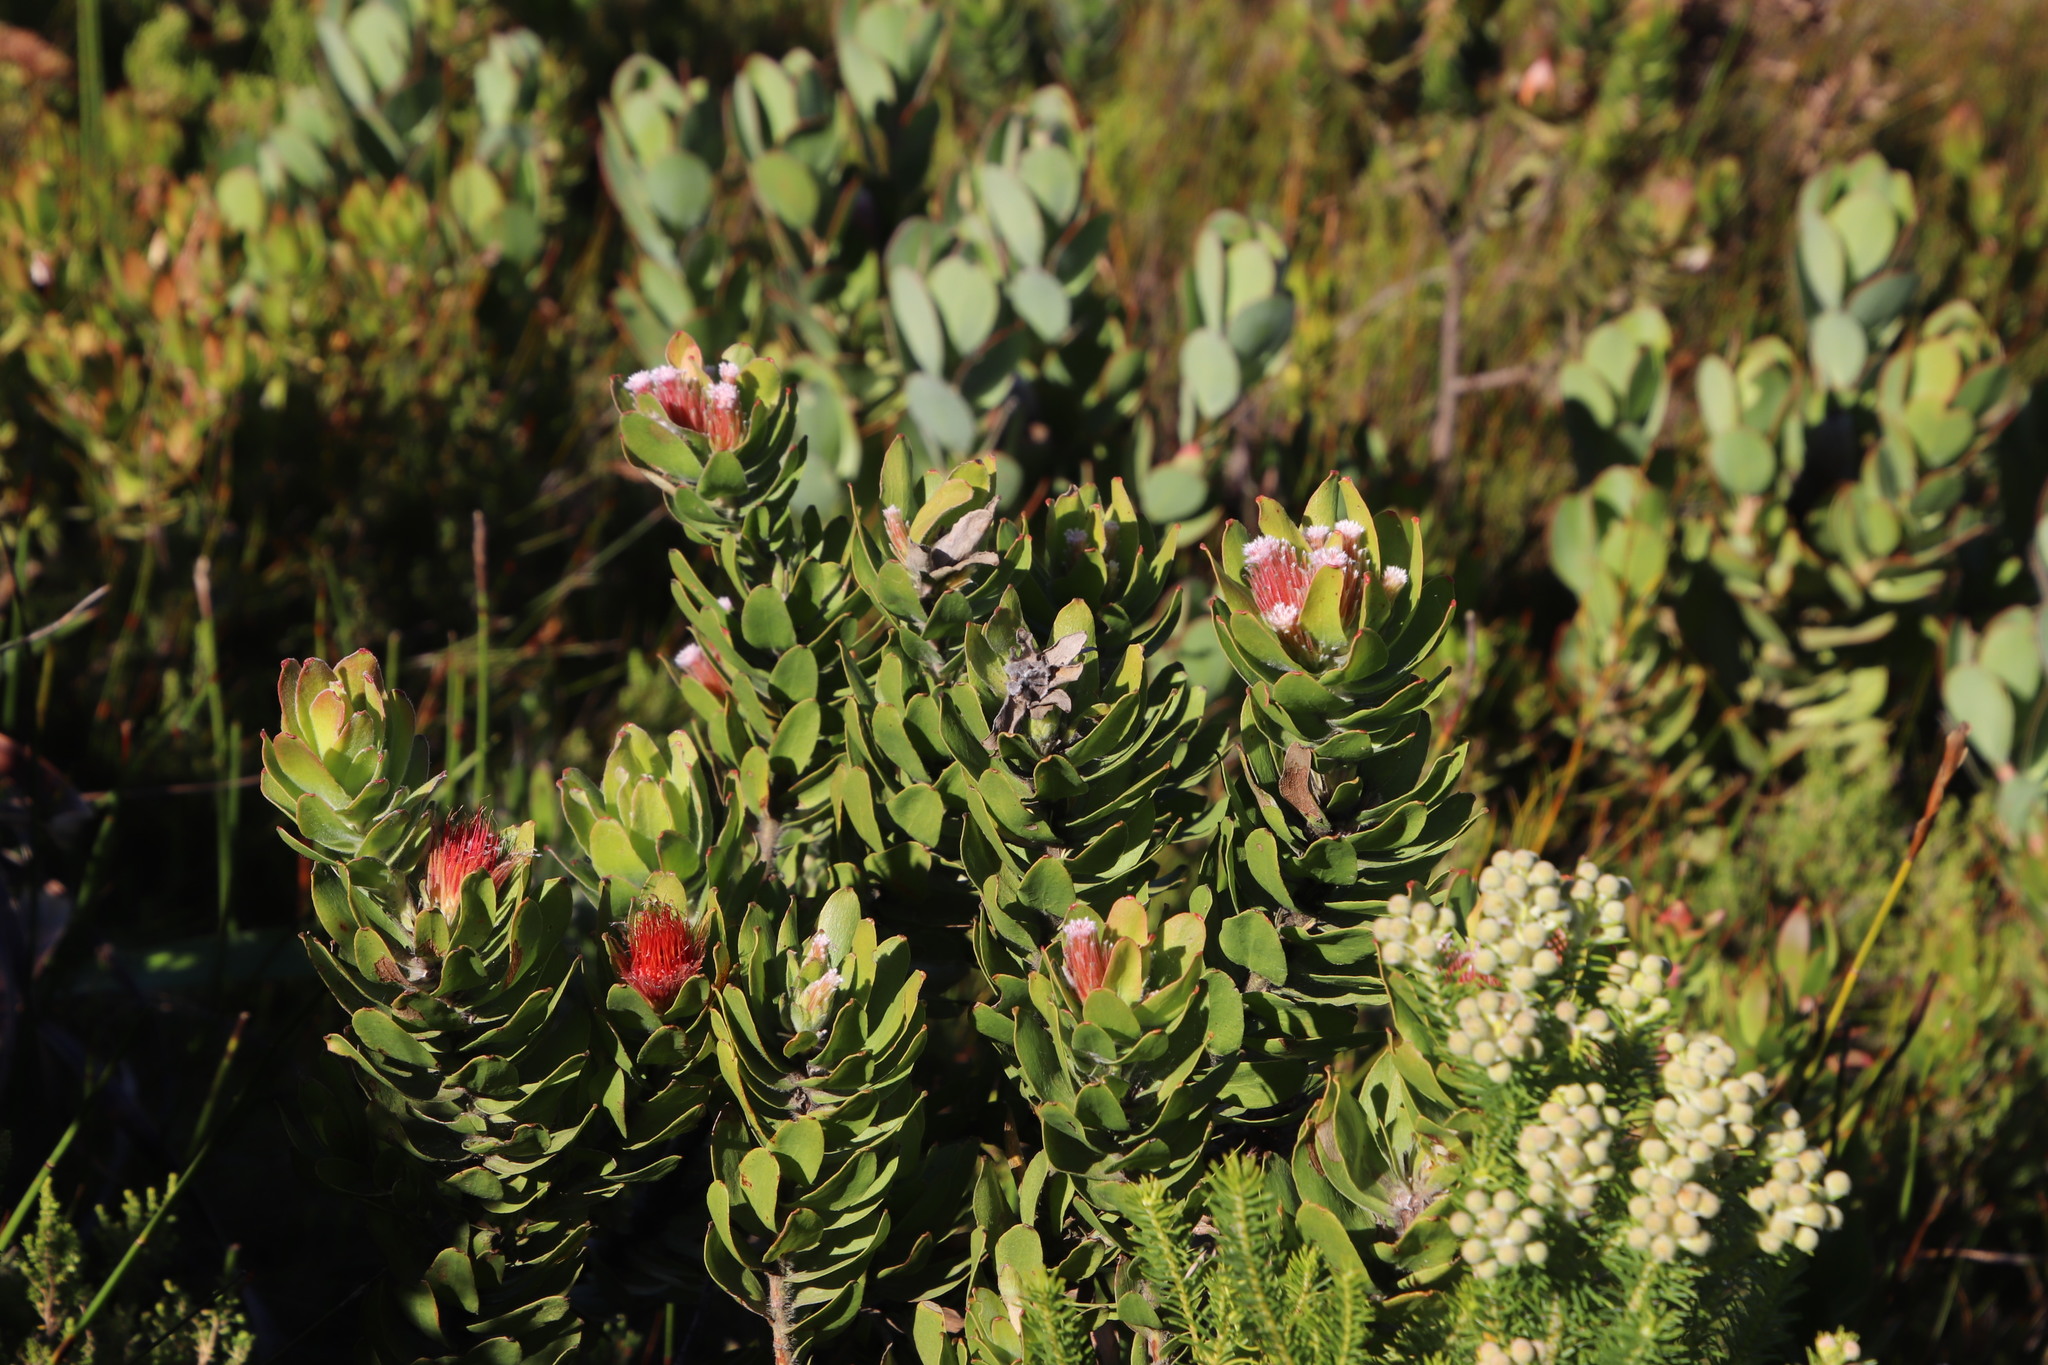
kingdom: Plantae
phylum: Tracheophyta
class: Magnoliopsida
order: Proteales
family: Proteaceae
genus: Leucospermum
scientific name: Leucospermum oleifolium
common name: Matches
